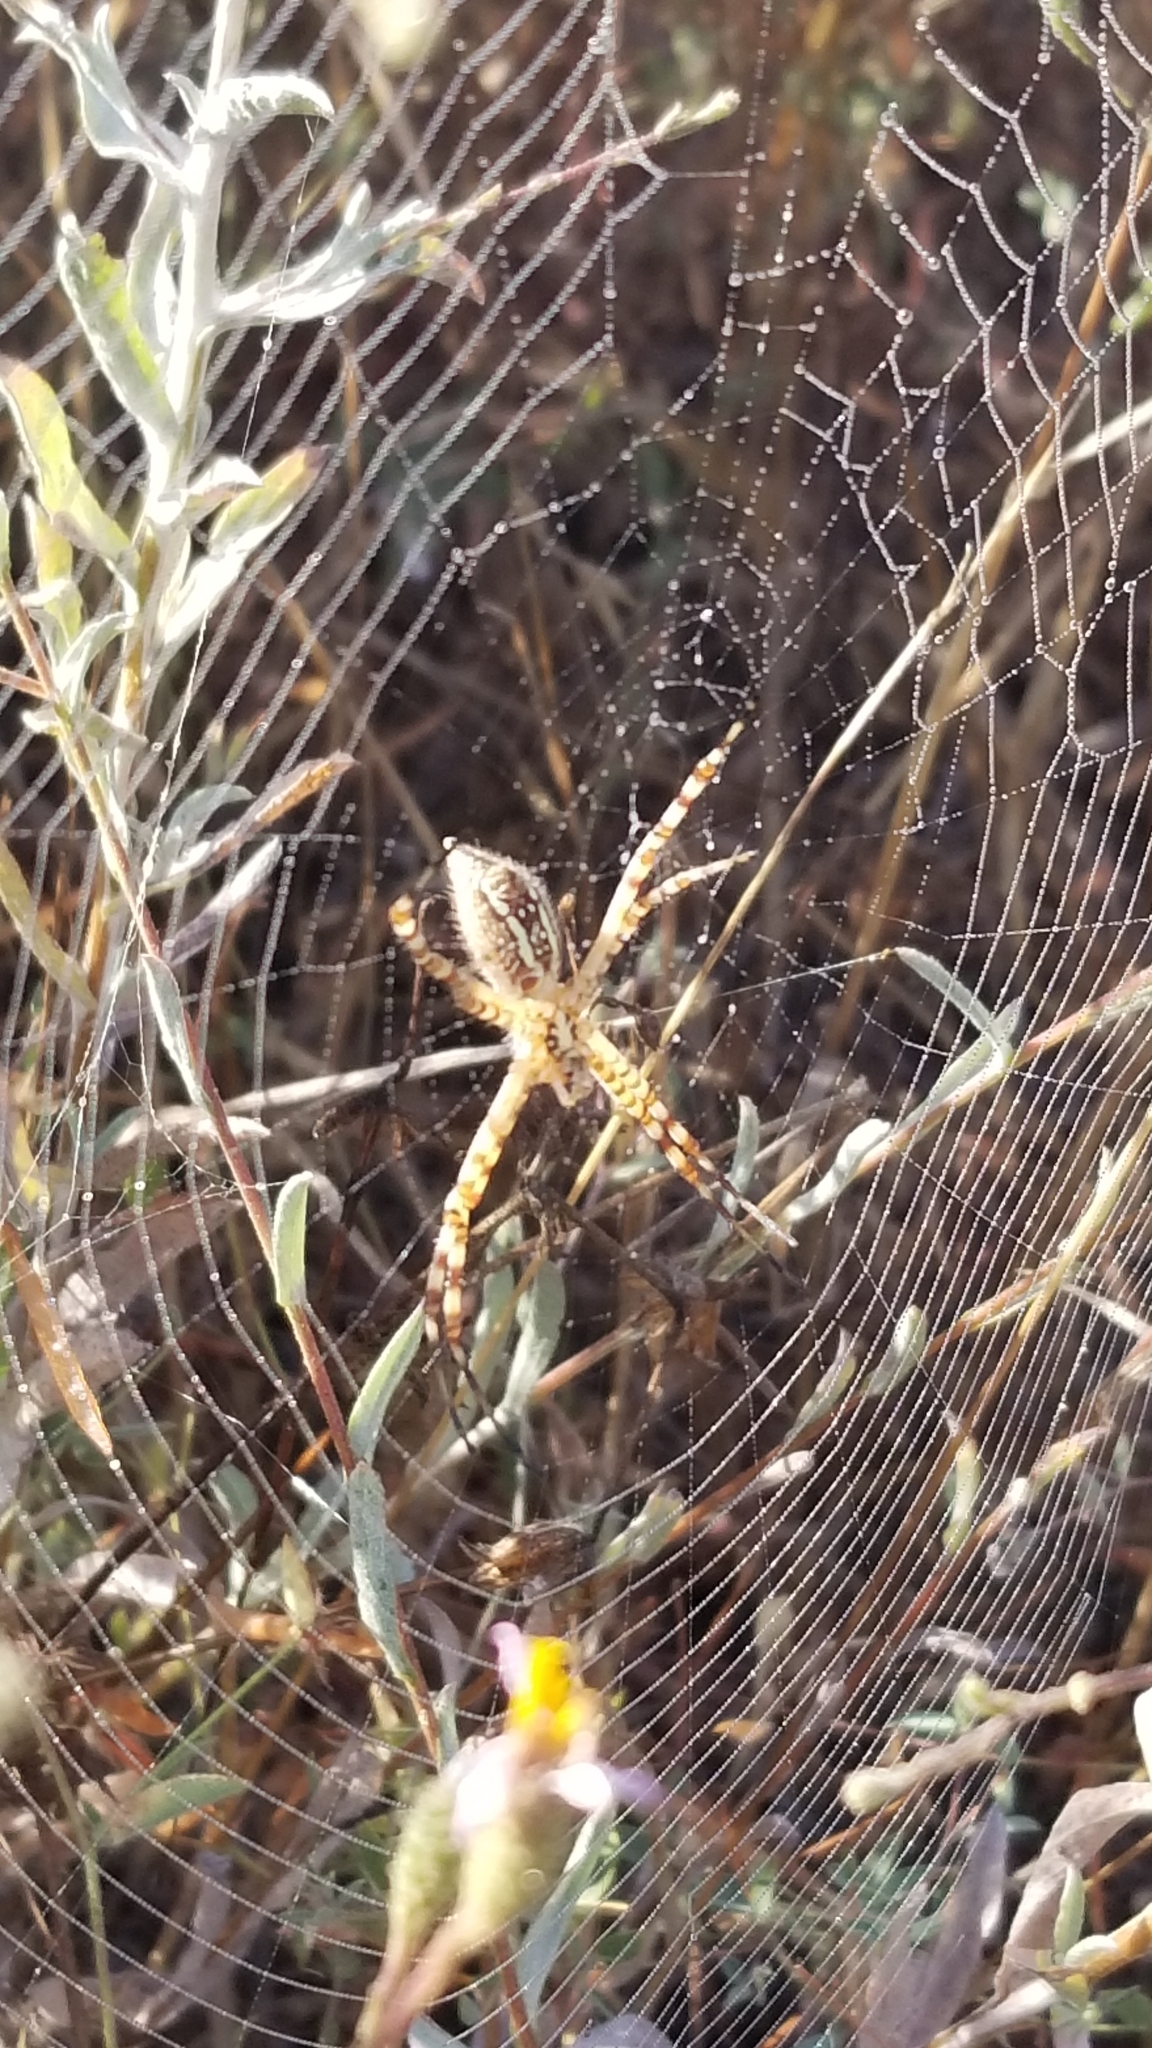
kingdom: Animalia
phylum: Arthropoda
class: Arachnida
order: Araneae
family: Araneidae
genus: Argiope
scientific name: Argiope trifasciata
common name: Banded garden spider
